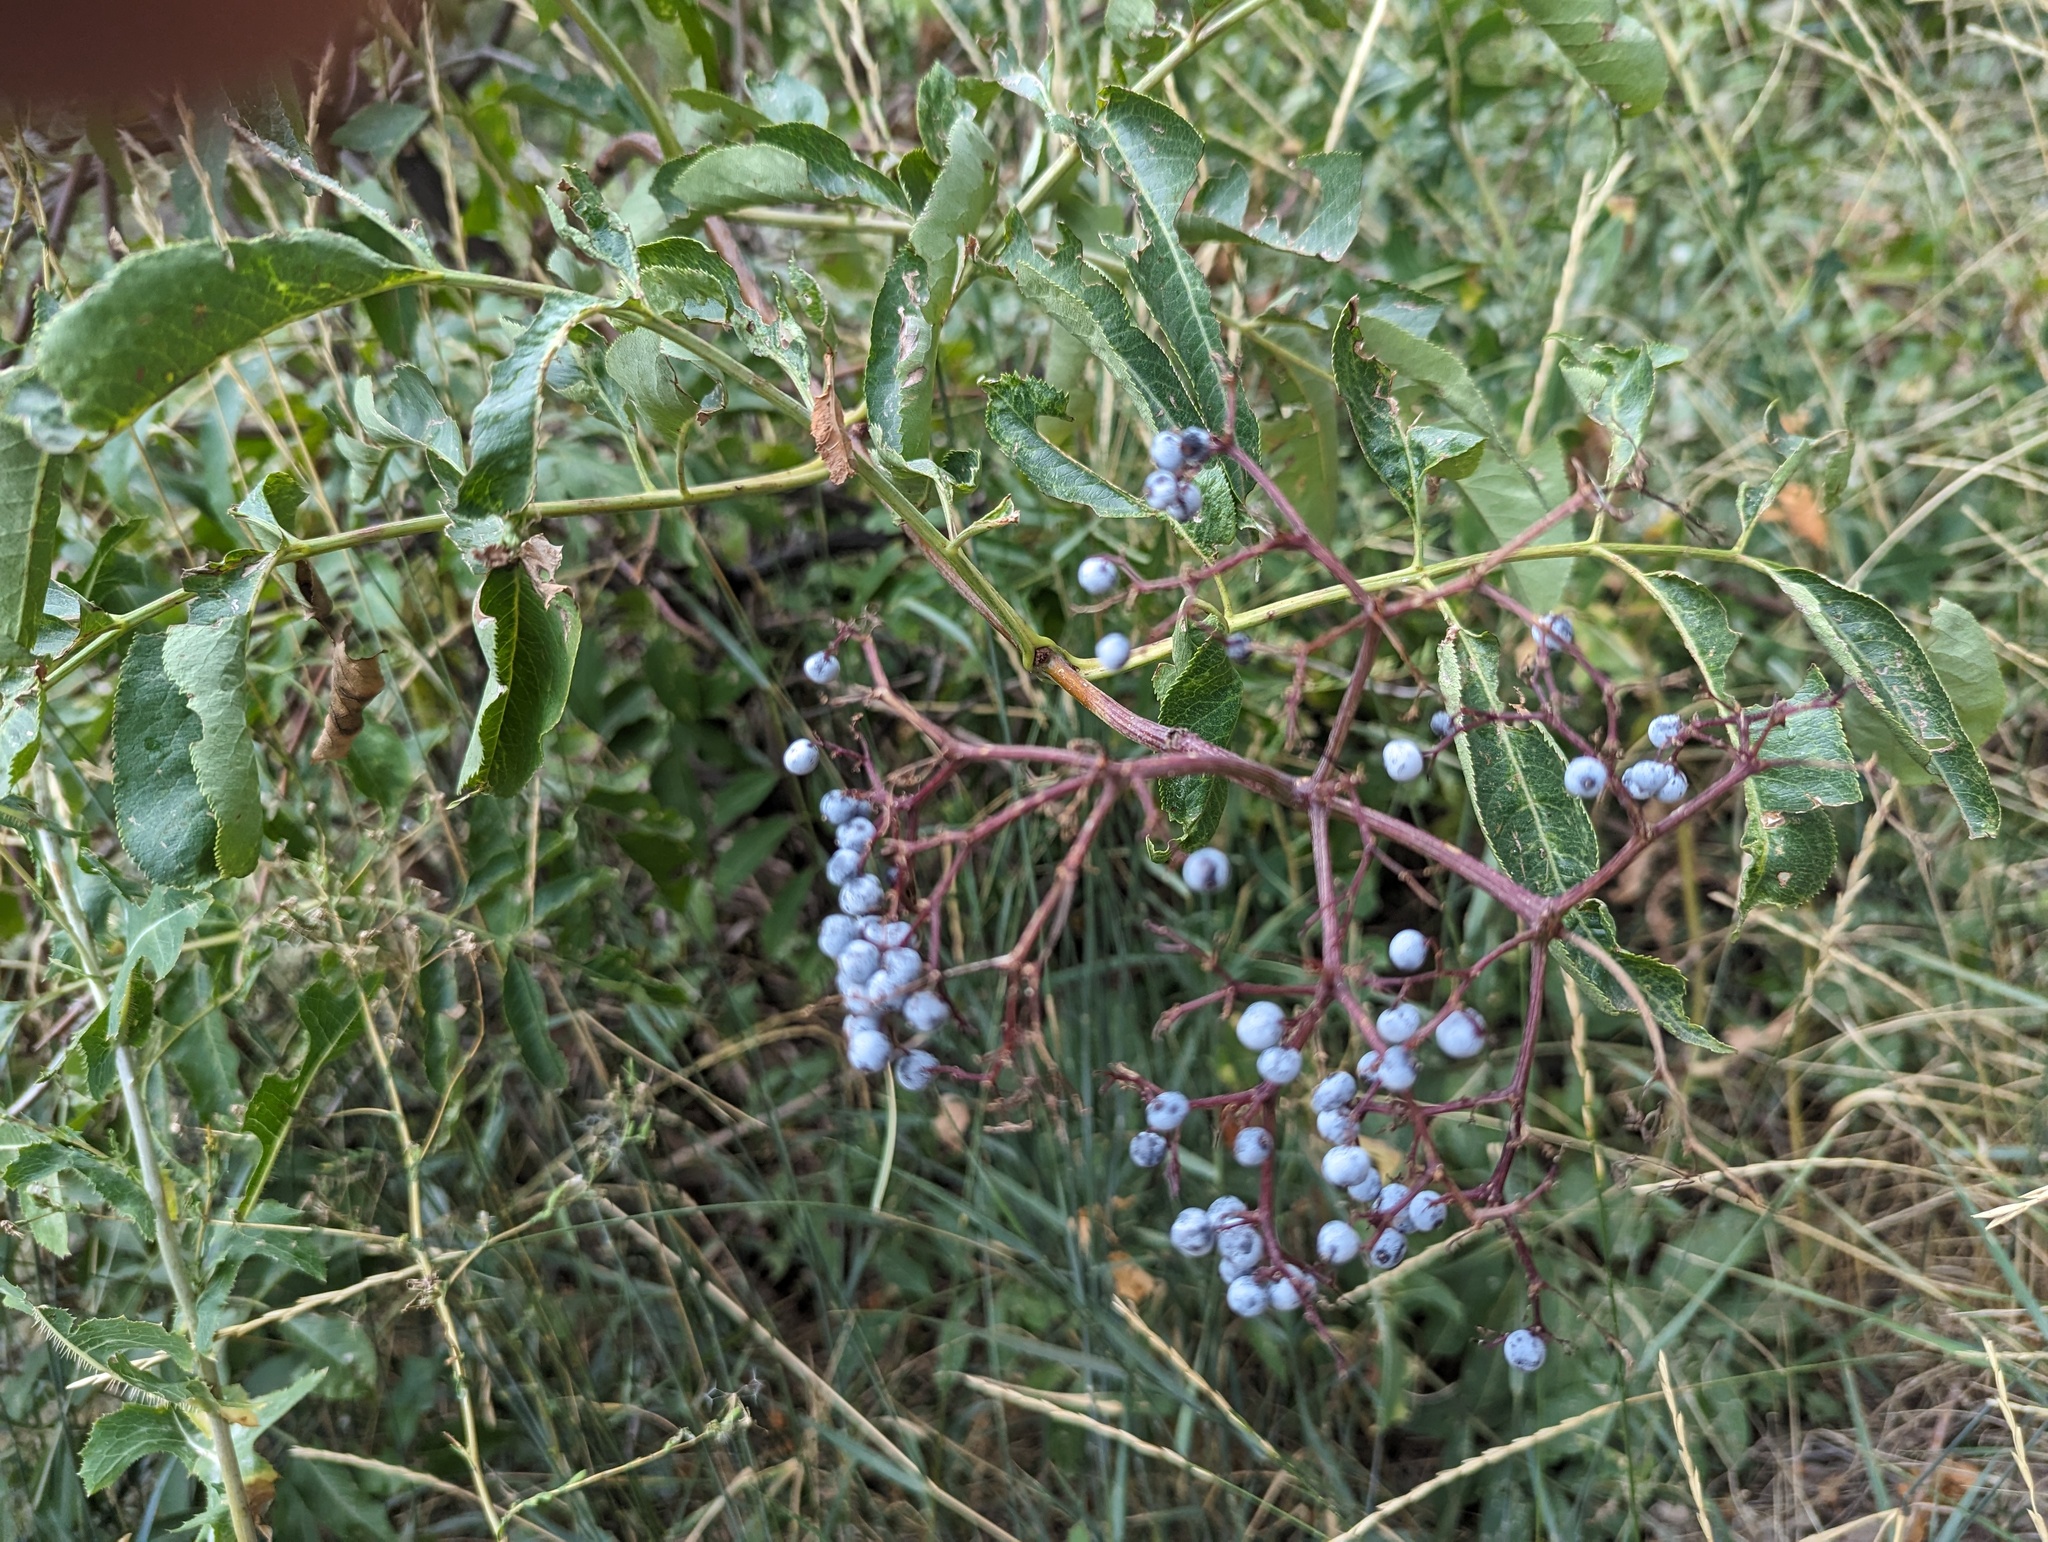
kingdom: Plantae
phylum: Tracheophyta
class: Magnoliopsida
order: Dipsacales
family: Viburnaceae
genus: Sambucus
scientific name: Sambucus cerulea
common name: Blue elder
